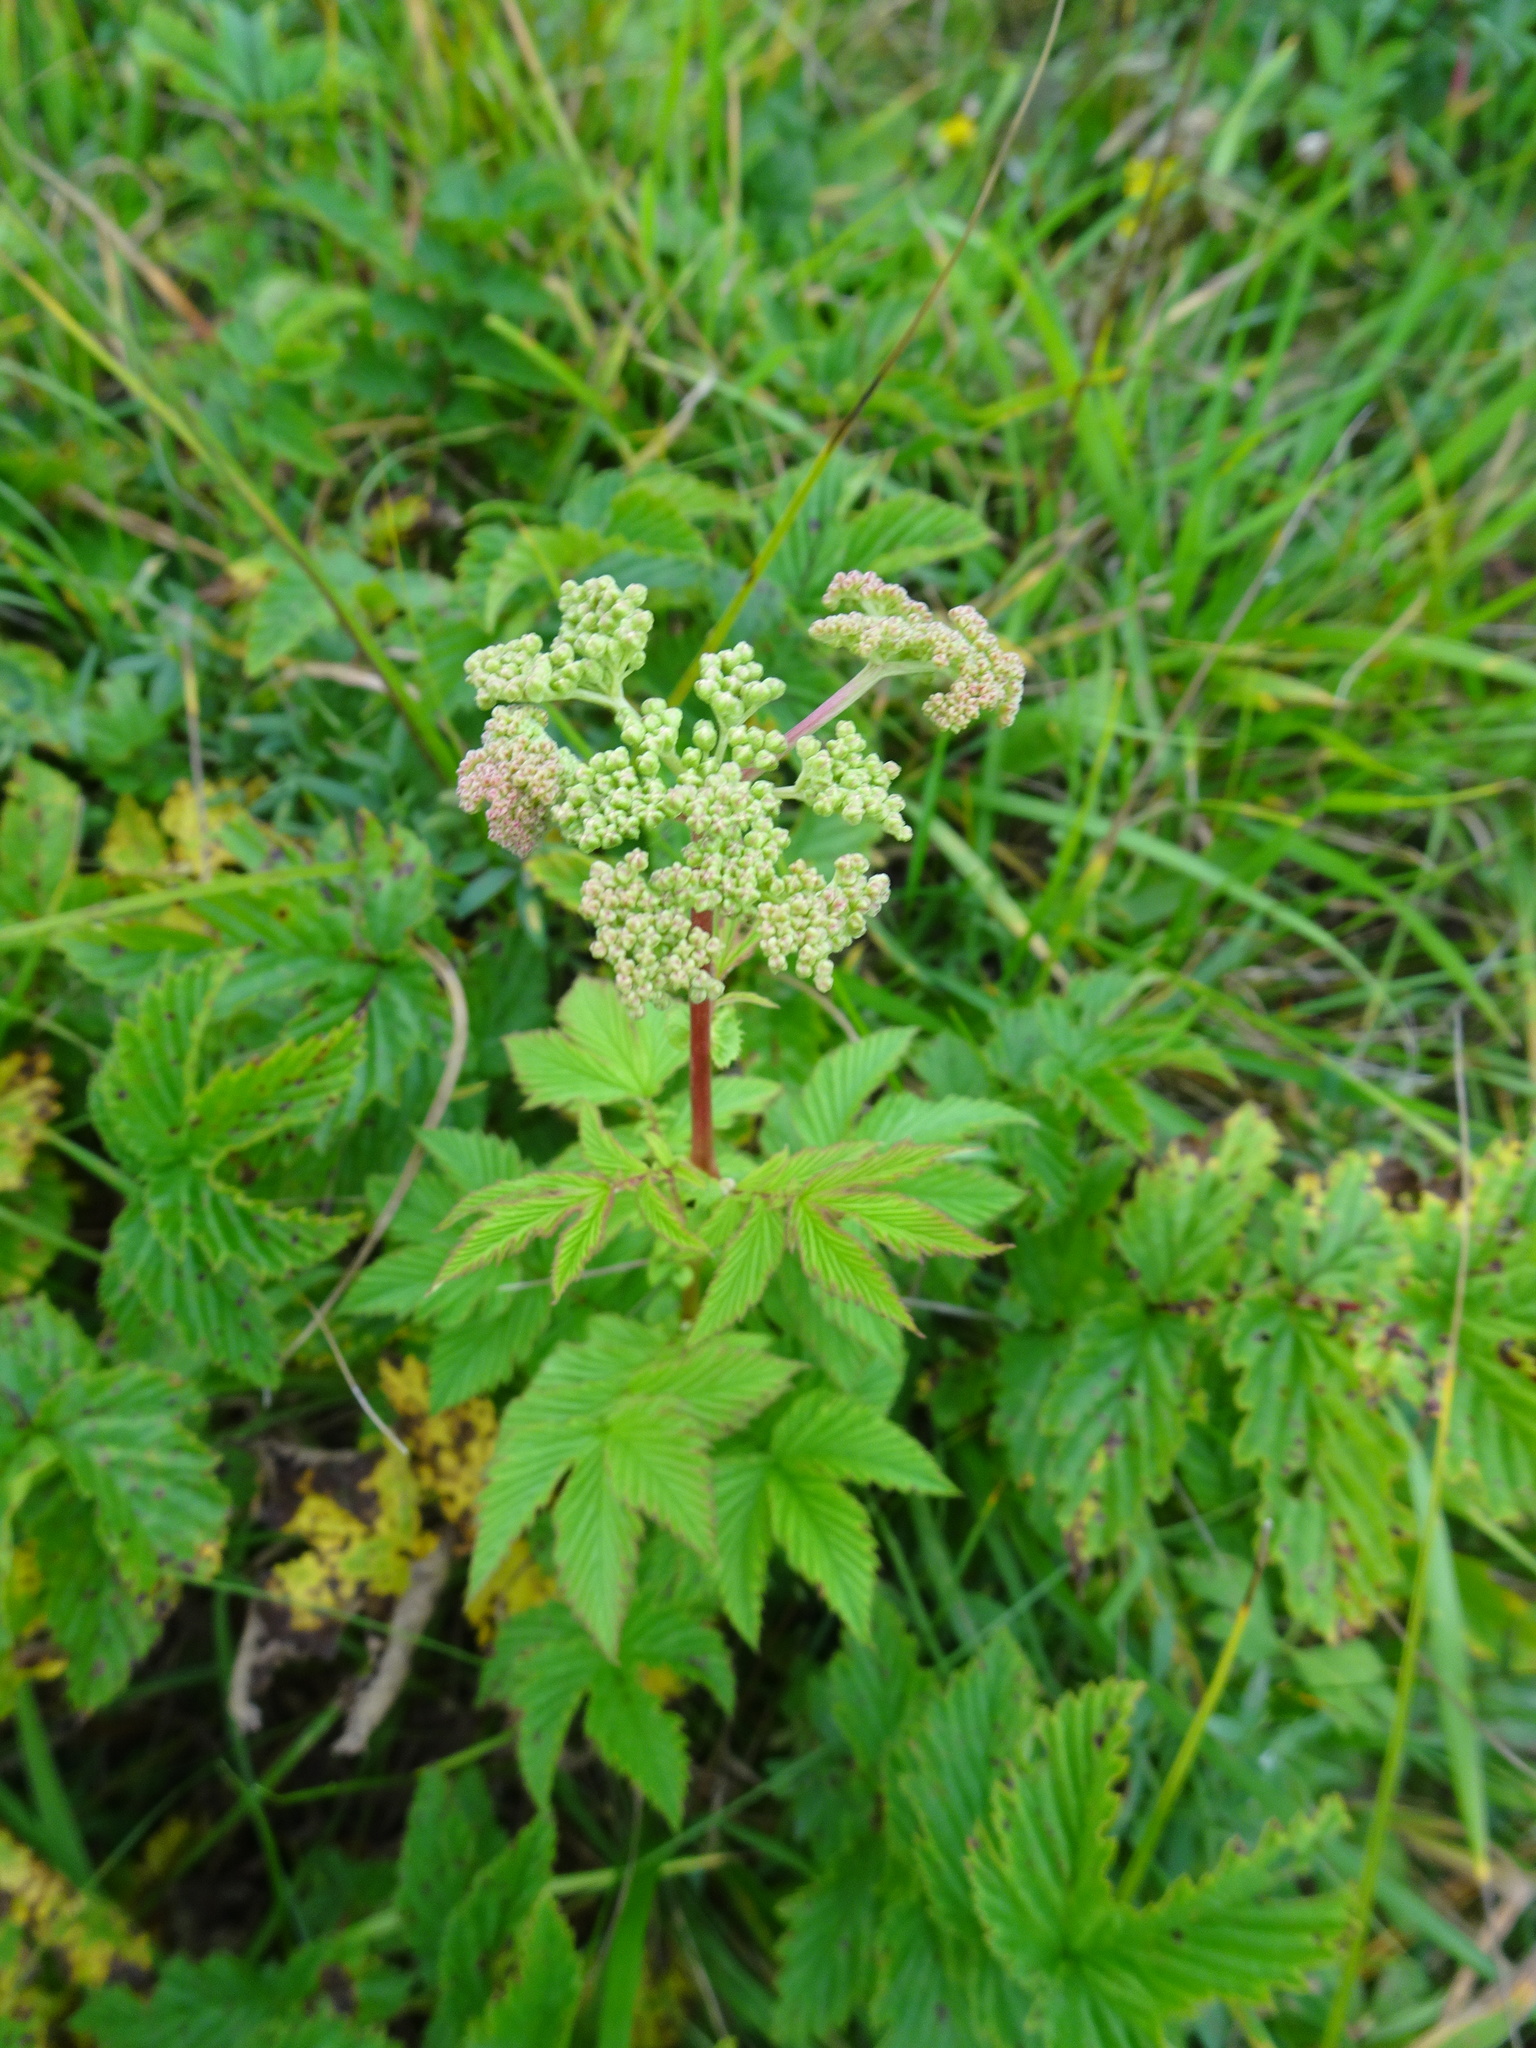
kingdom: Plantae
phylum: Tracheophyta
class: Magnoliopsida
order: Rosales
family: Rosaceae
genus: Filipendula
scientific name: Filipendula ulmaria
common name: Meadowsweet
